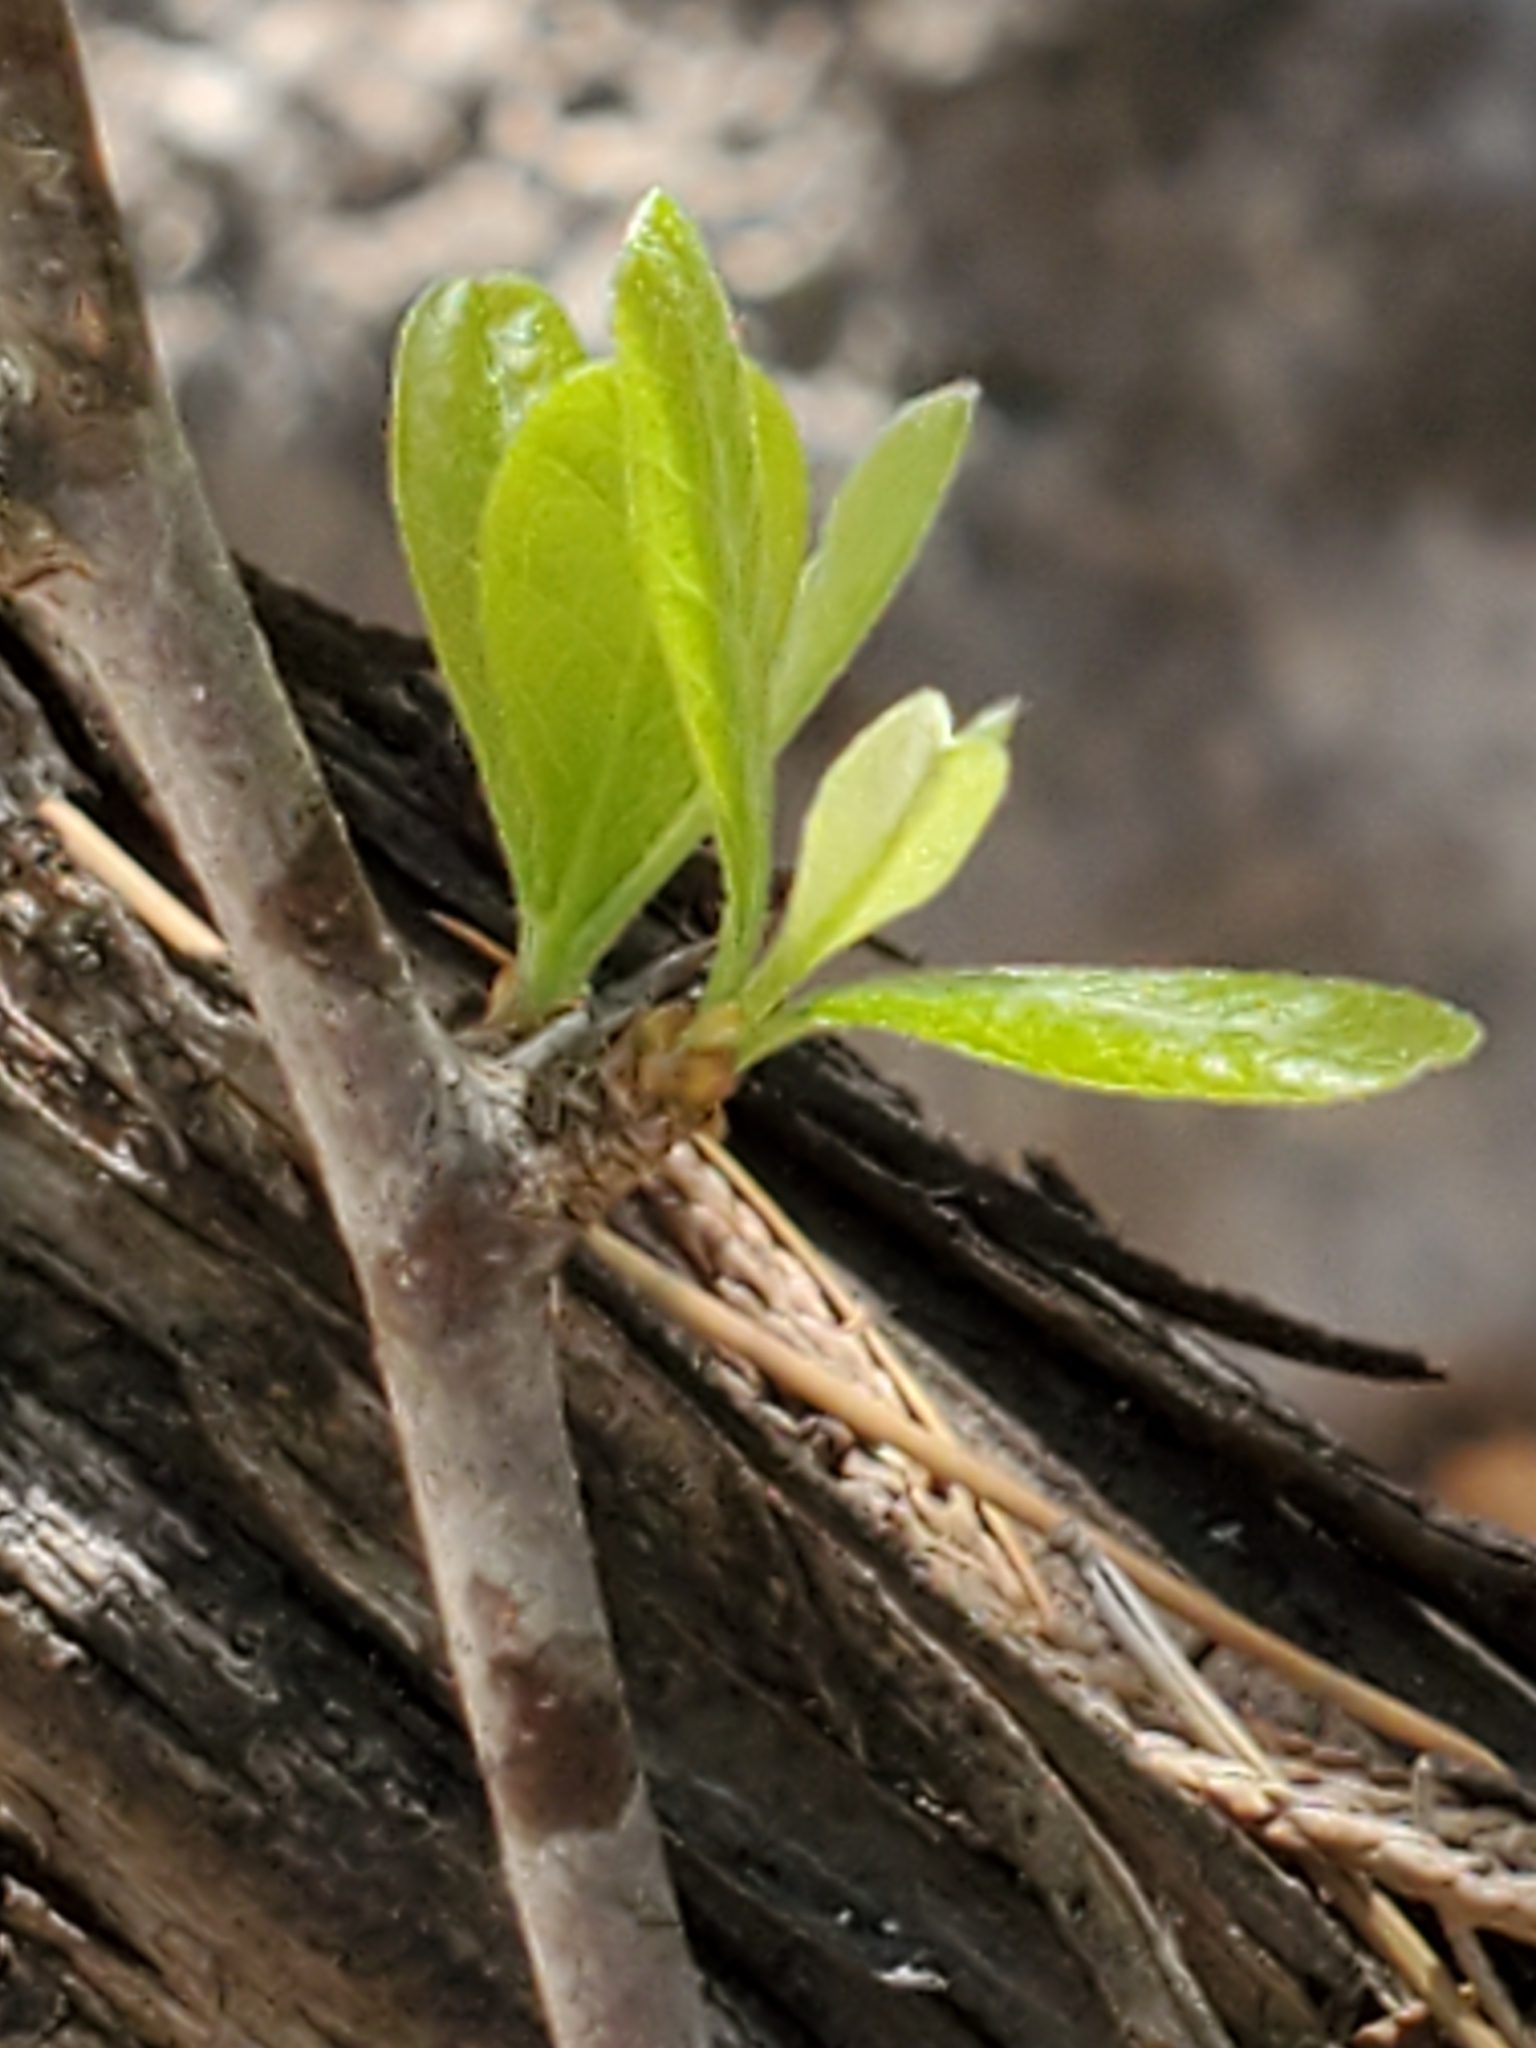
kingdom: Plantae
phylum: Tracheophyta
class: Magnoliopsida
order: Ericales
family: Sapotaceae
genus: Sideroxylon
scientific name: Sideroxylon lanuginosum
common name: Chittamwood
